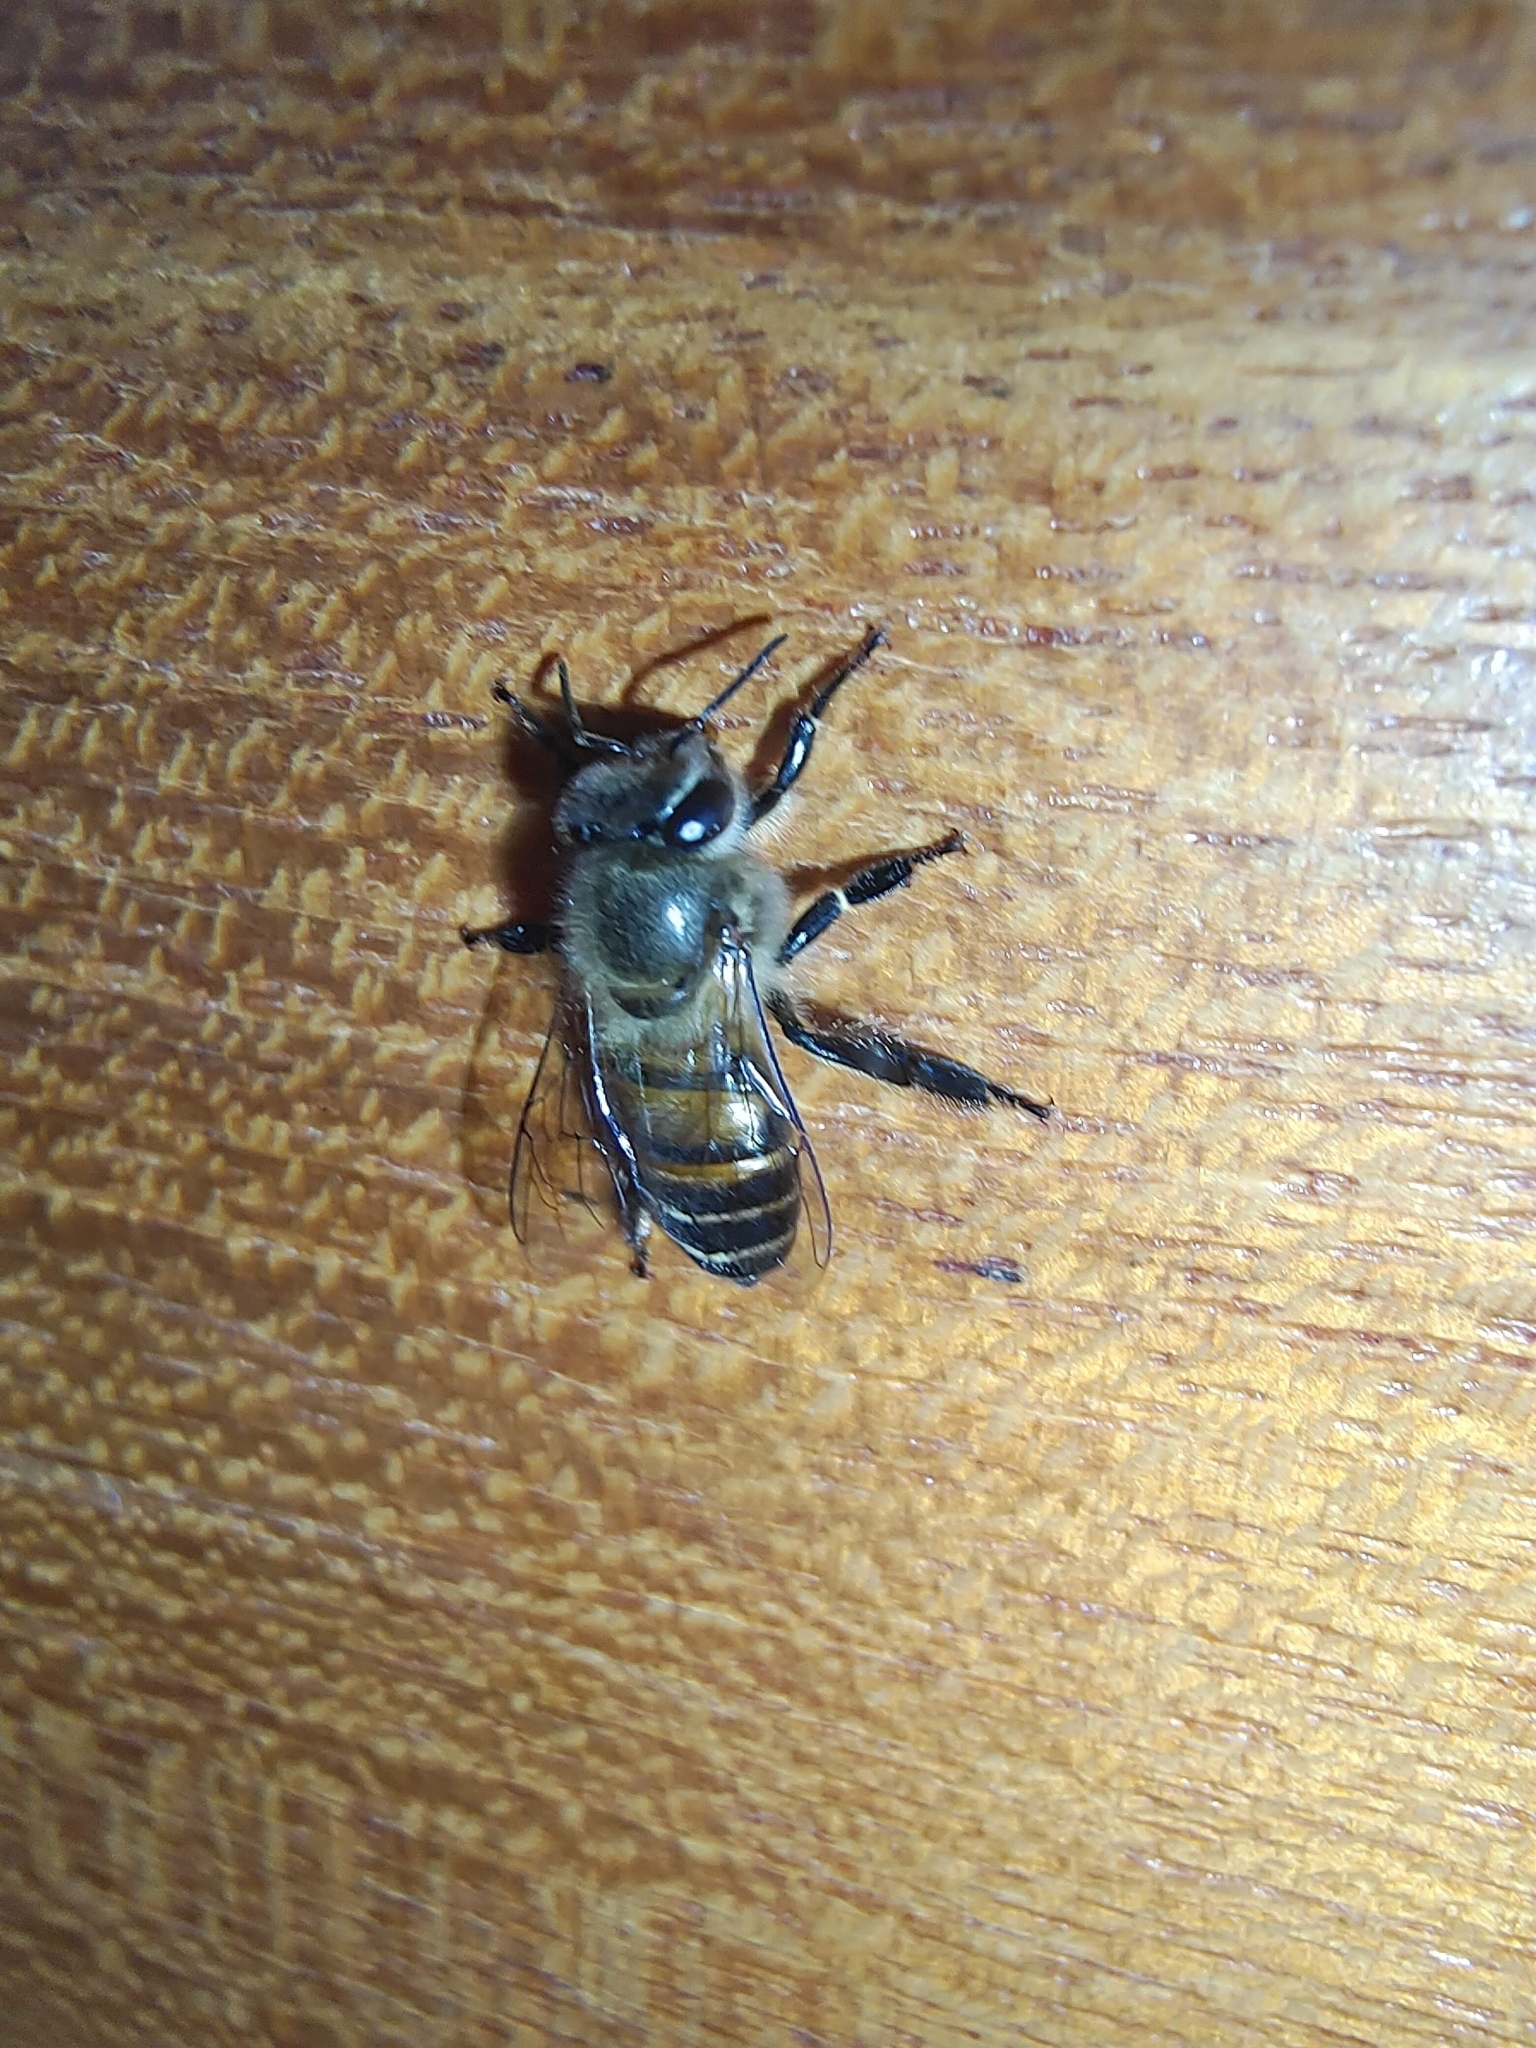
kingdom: Animalia
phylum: Arthropoda
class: Insecta
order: Hymenoptera
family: Apidae
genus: Apis
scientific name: Apis cerana
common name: Honey bee
